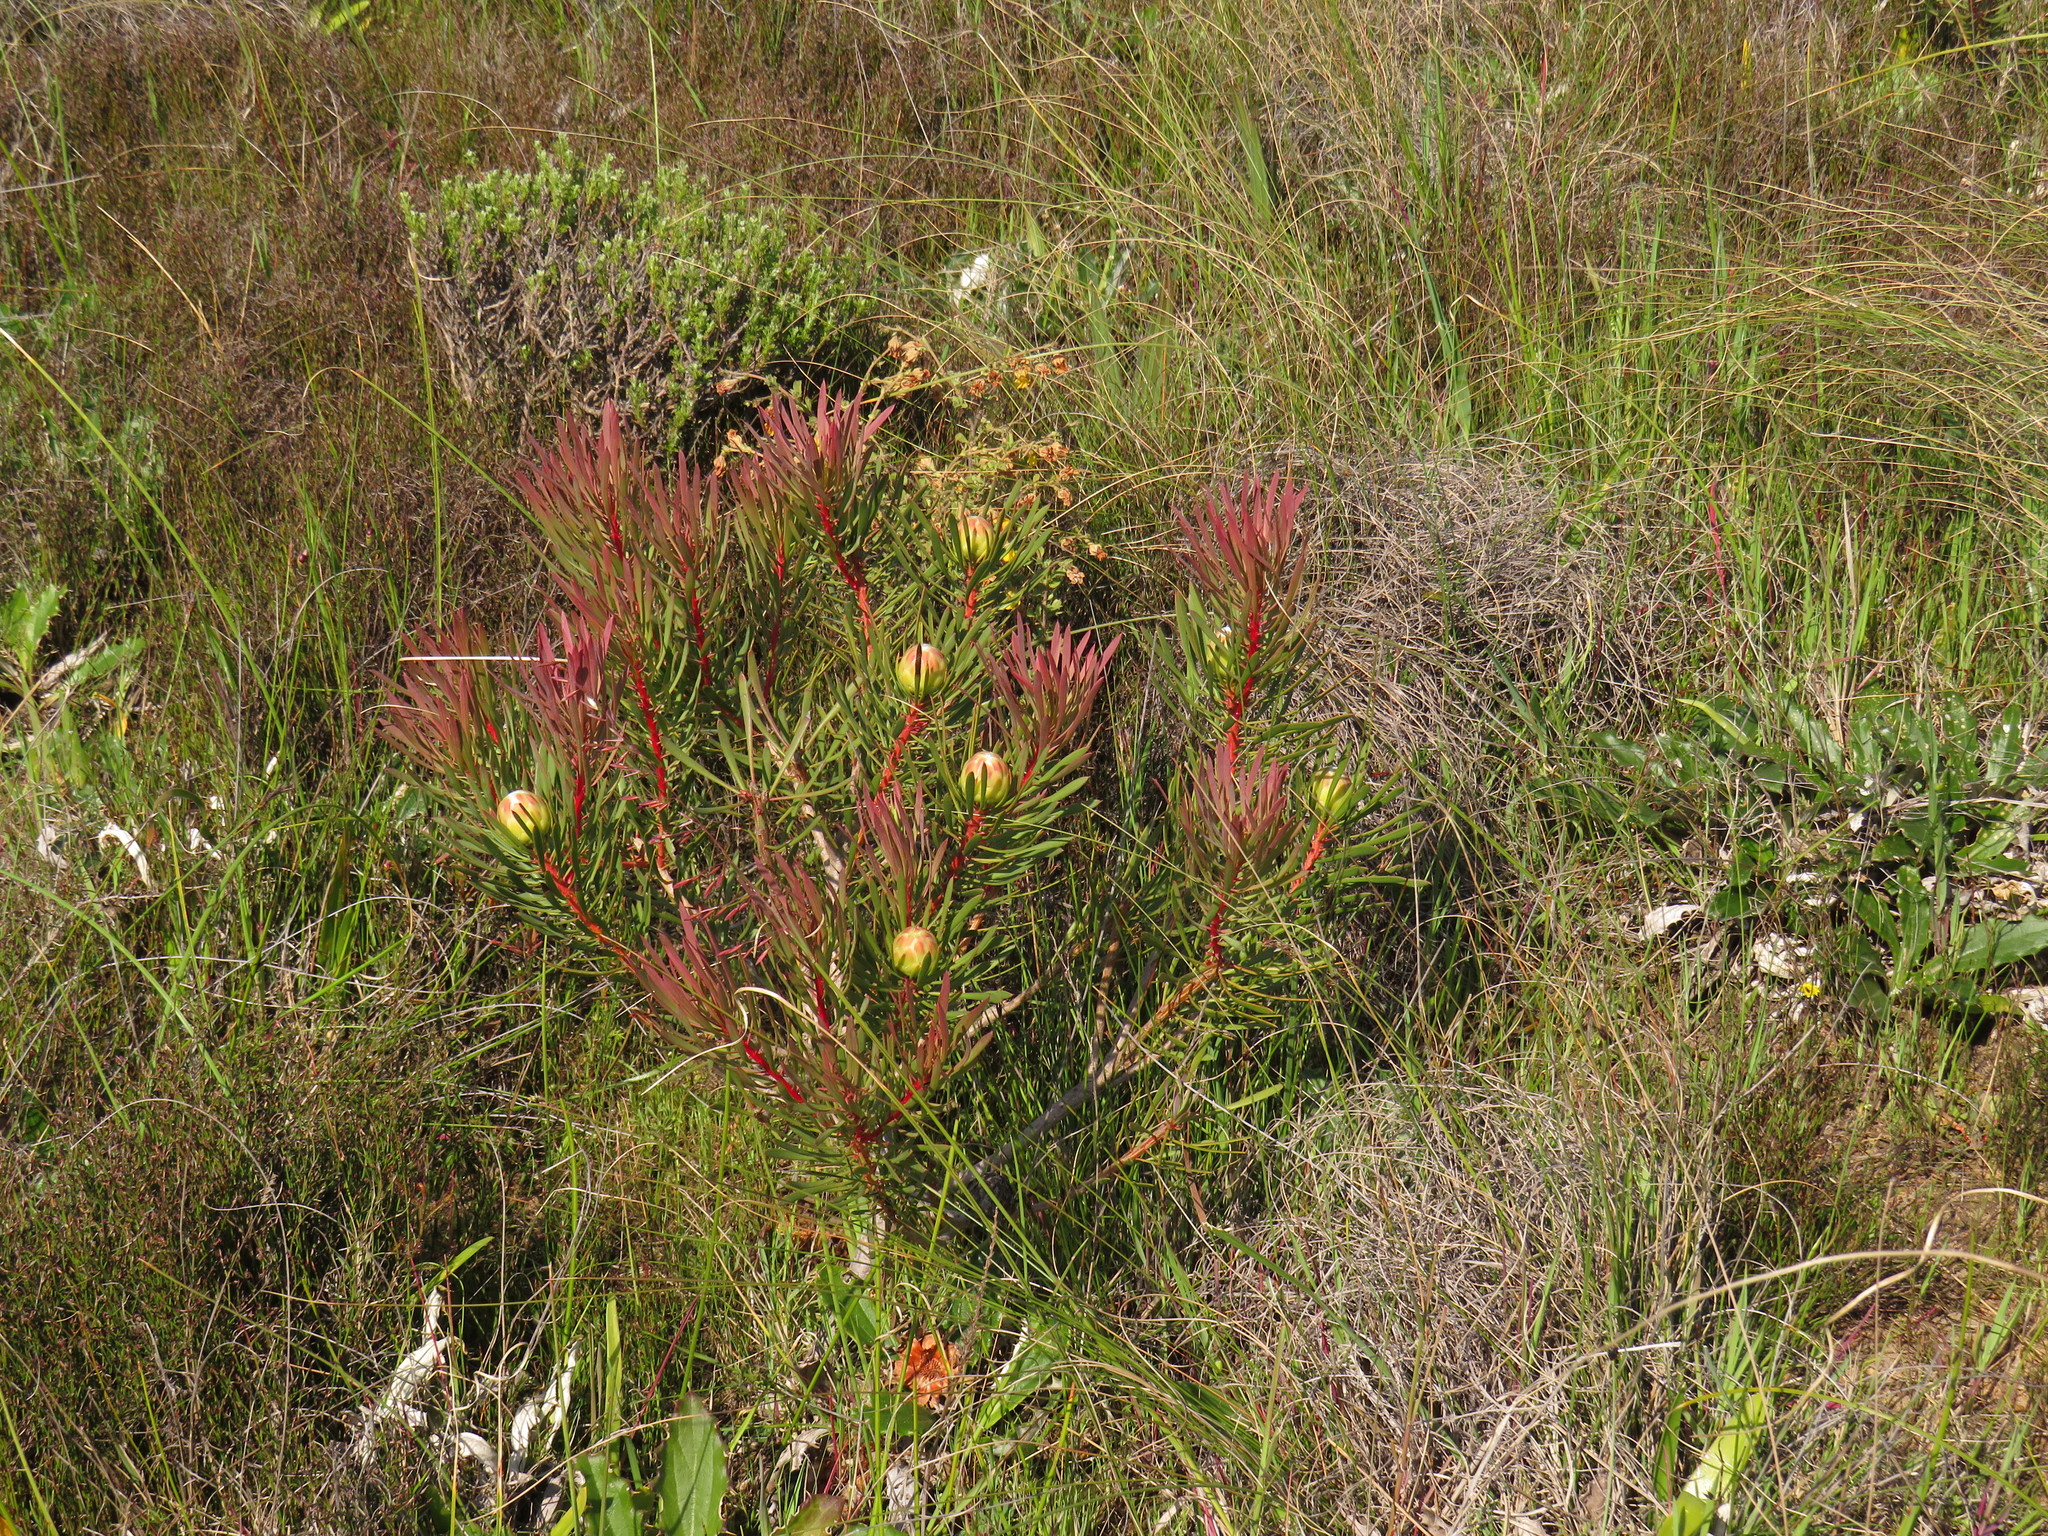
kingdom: Plantae
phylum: Tracheophyta
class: Magnoliopsida
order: Proteales
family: Proteaceae
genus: Protea
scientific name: Protea scolymocephala
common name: Thistle sugarbush
